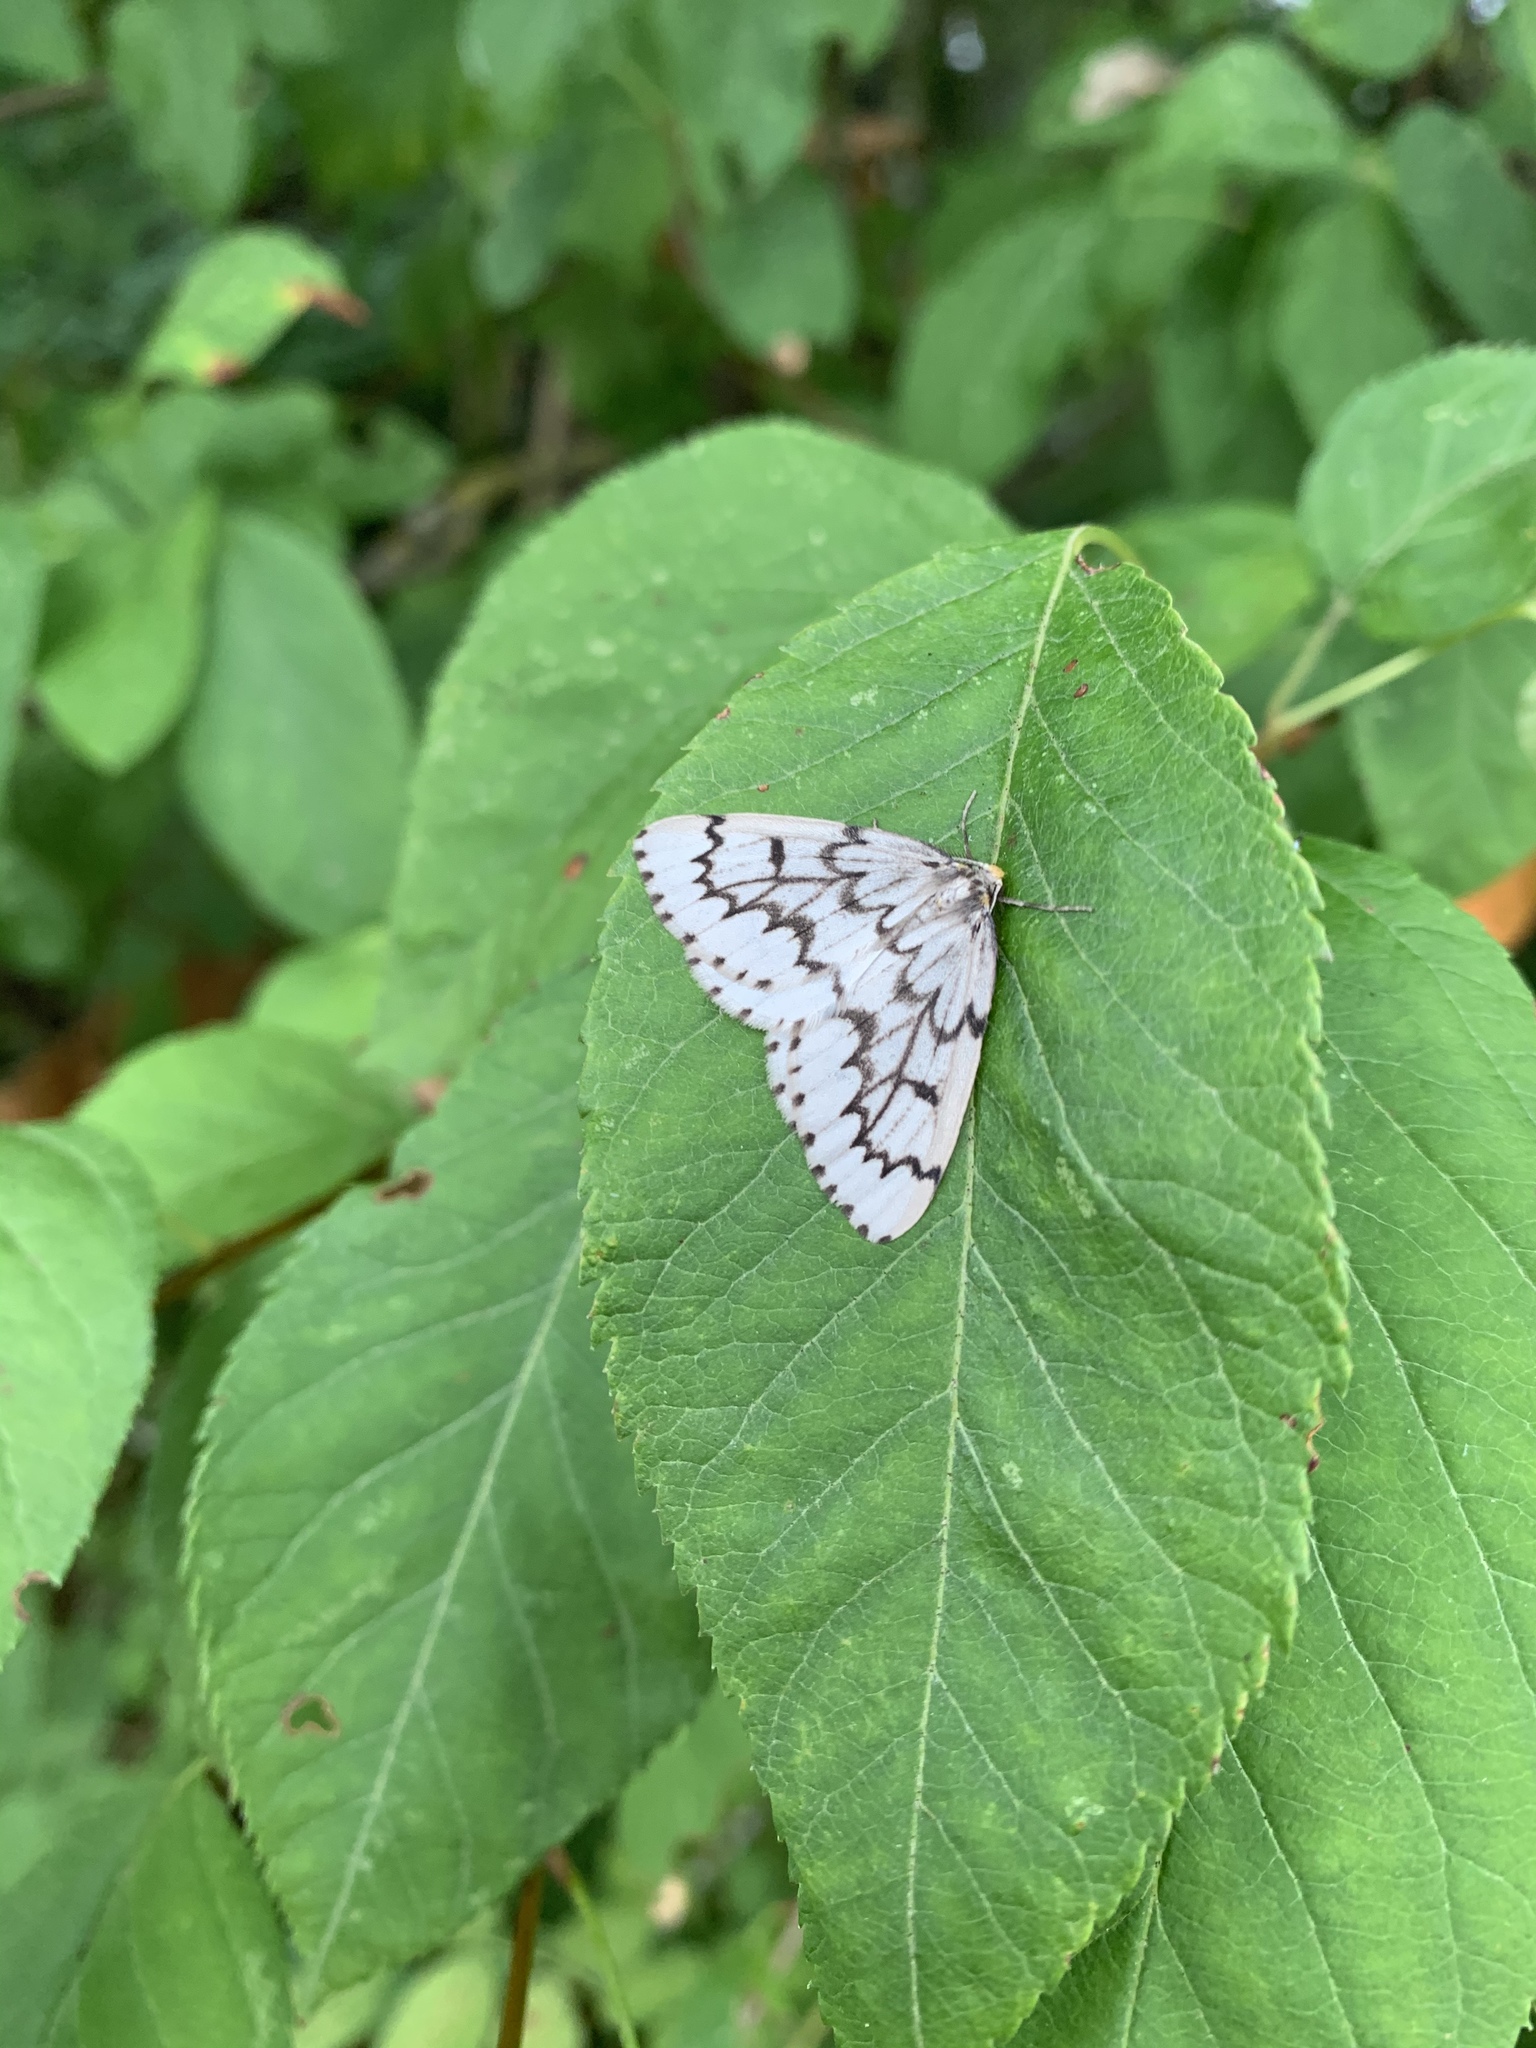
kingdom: Animalia
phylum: Arthropoda
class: Insecta
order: Lepidoptera
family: Geometridae
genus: Nepytia
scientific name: Nepytia phantasmaria
